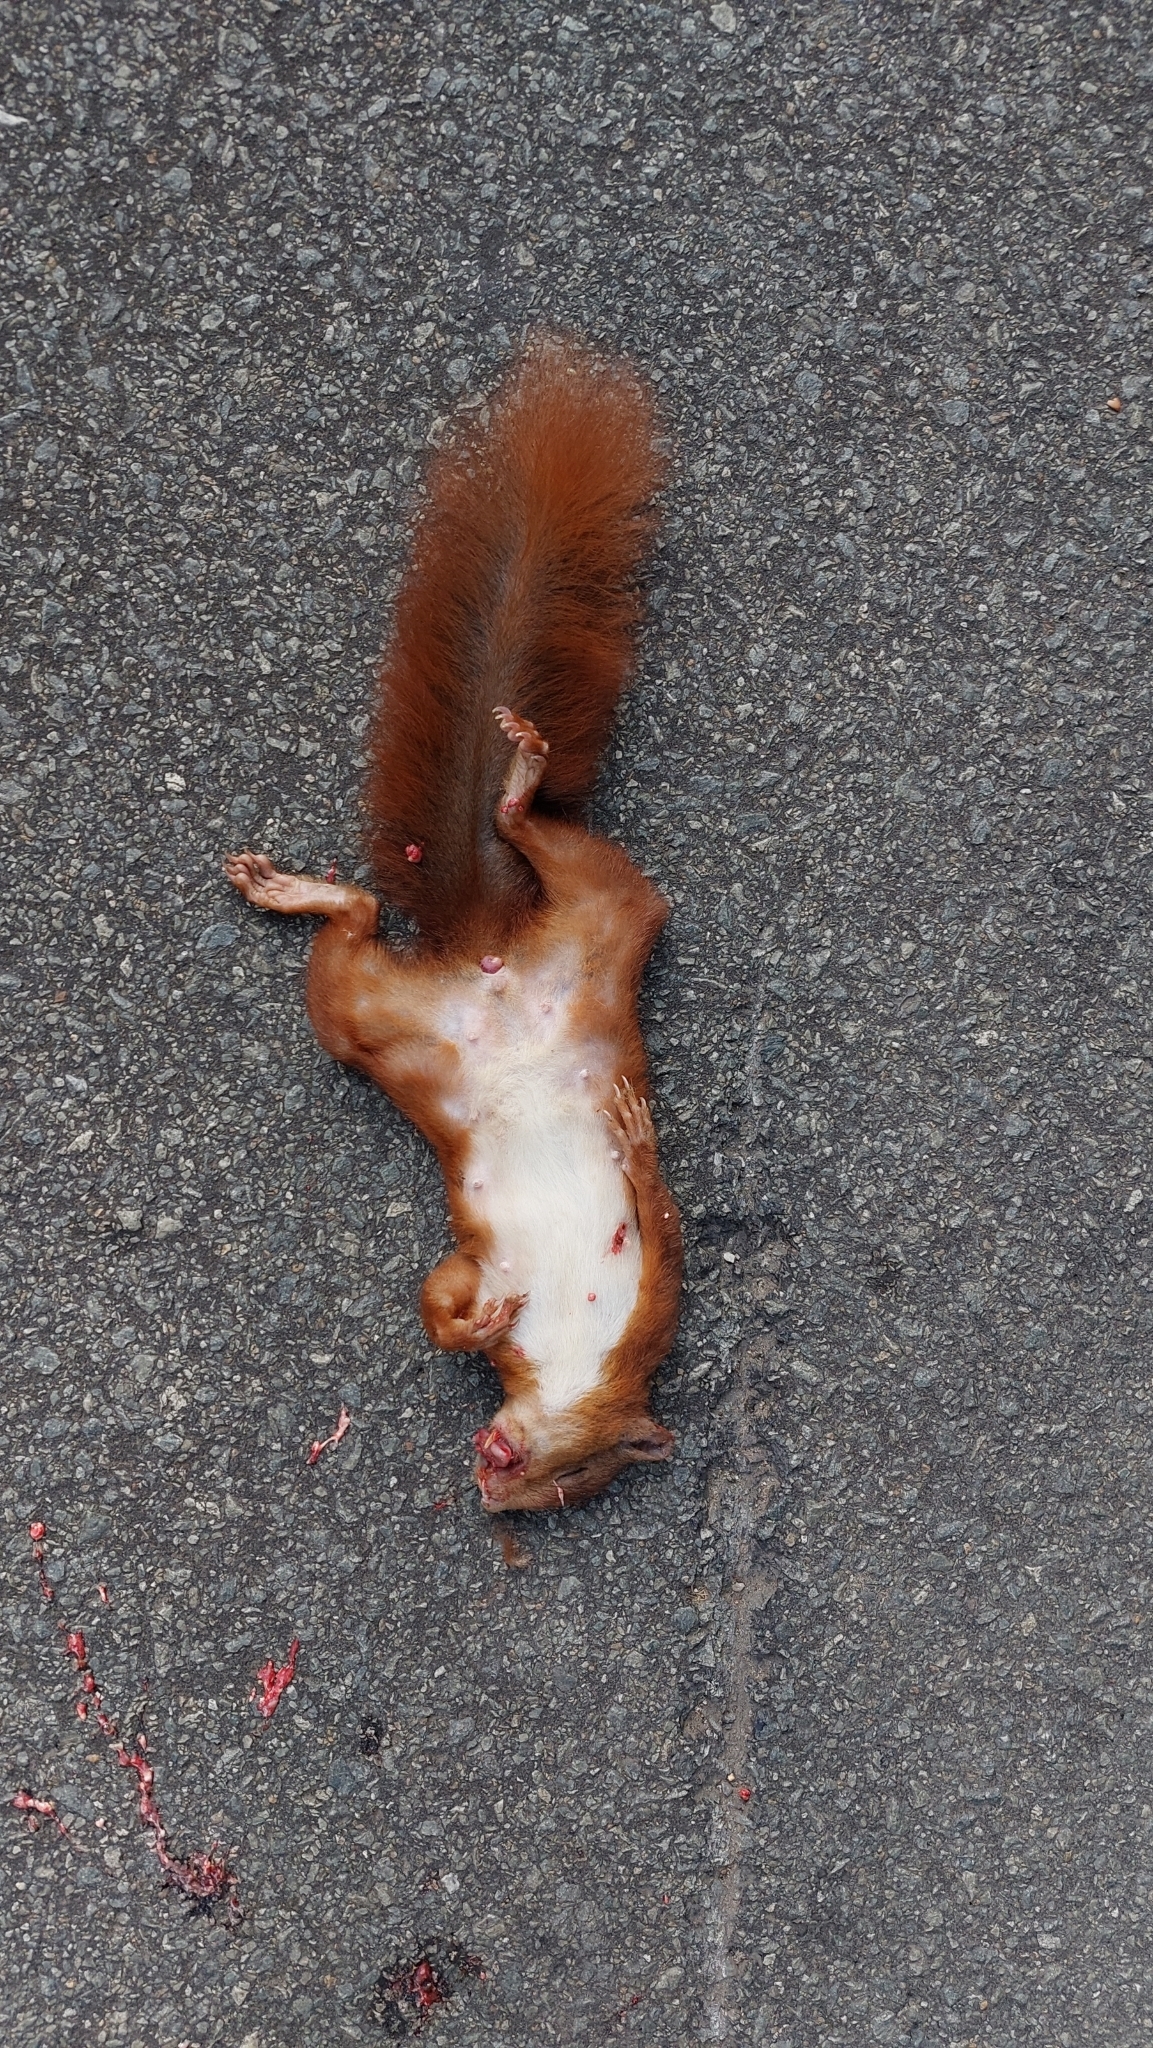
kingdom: Animalia
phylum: Chordata
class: Mammalia
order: Rodentia
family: Sciuridae
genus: Sciurus
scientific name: Sciurus vulgaris
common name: Eurasian red squirrel
